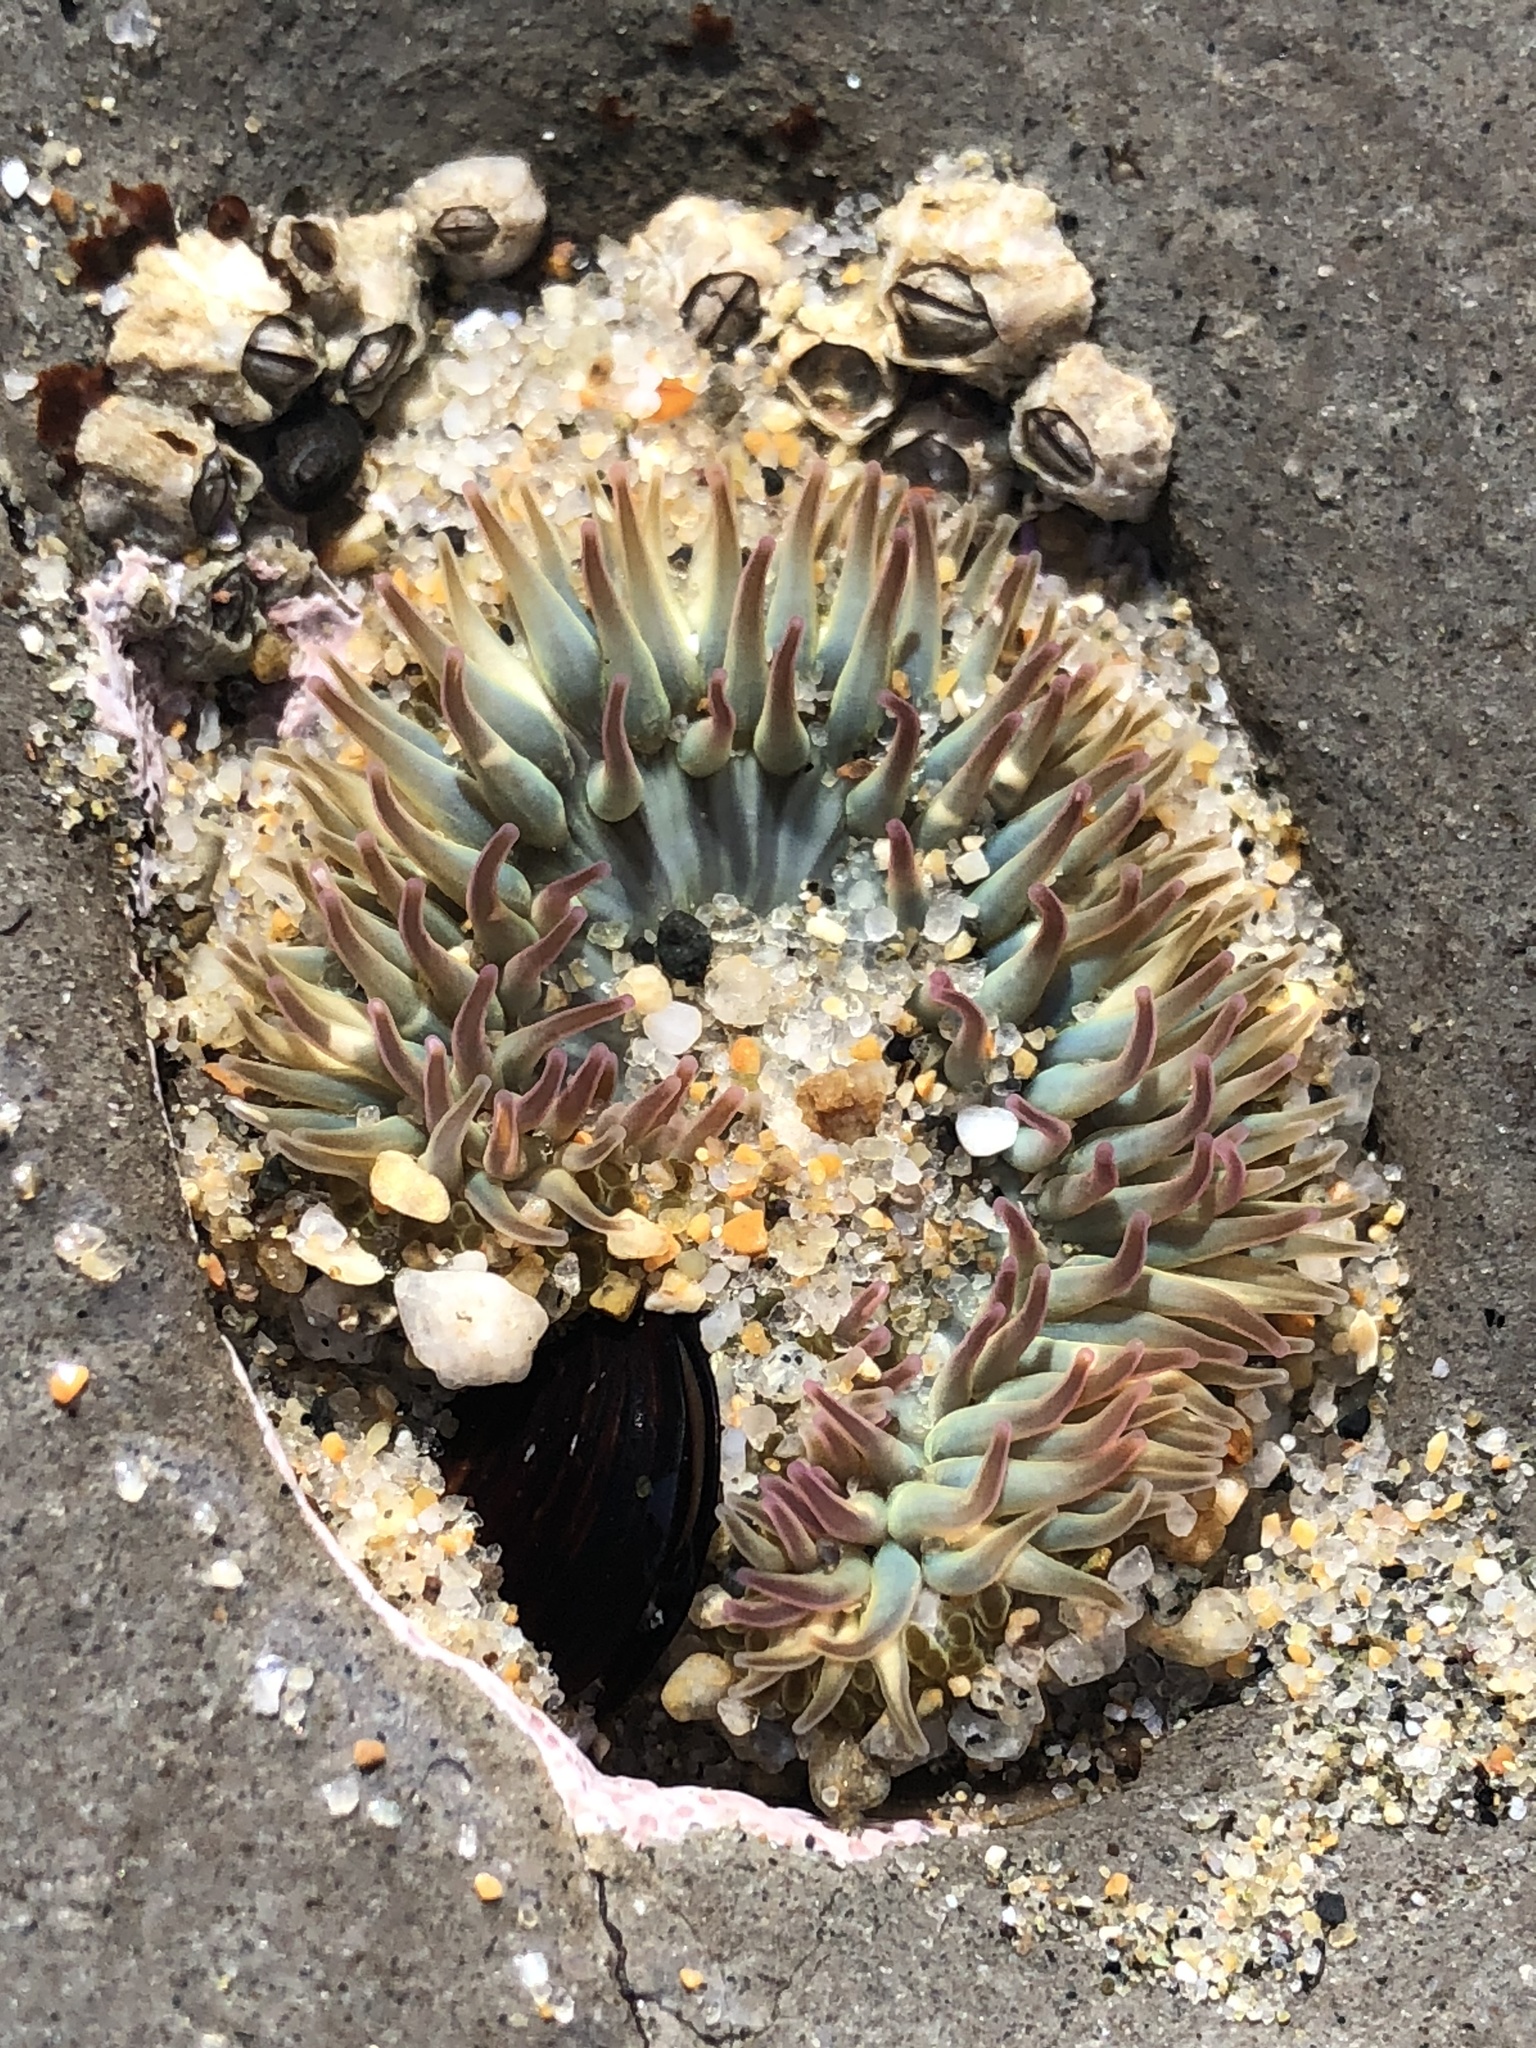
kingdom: Animalia
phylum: Cnidaria
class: Anthozoa
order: Actiniaria
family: Actiniidae
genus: Anthopleura
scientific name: Anthopleura elegantissima
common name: Clonal anemone
